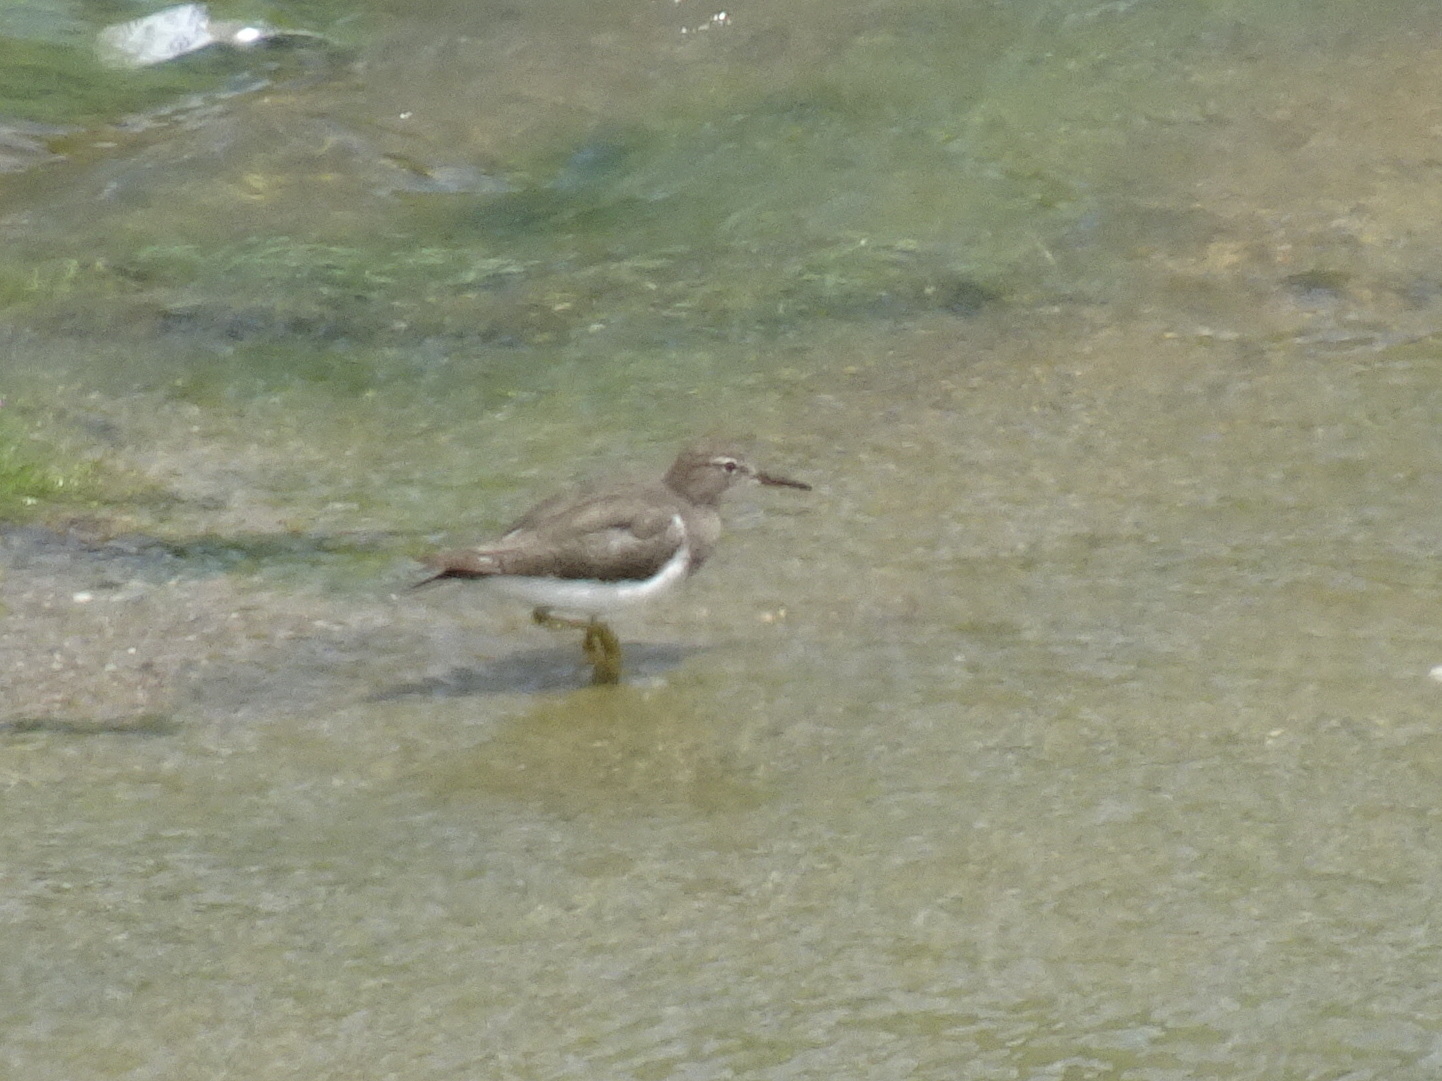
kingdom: Animalia
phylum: Chordata
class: Aves
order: Charadriiformes
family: Scolopacidae
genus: Actitis
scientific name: Actitis macularius
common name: Spotted sandpiper
